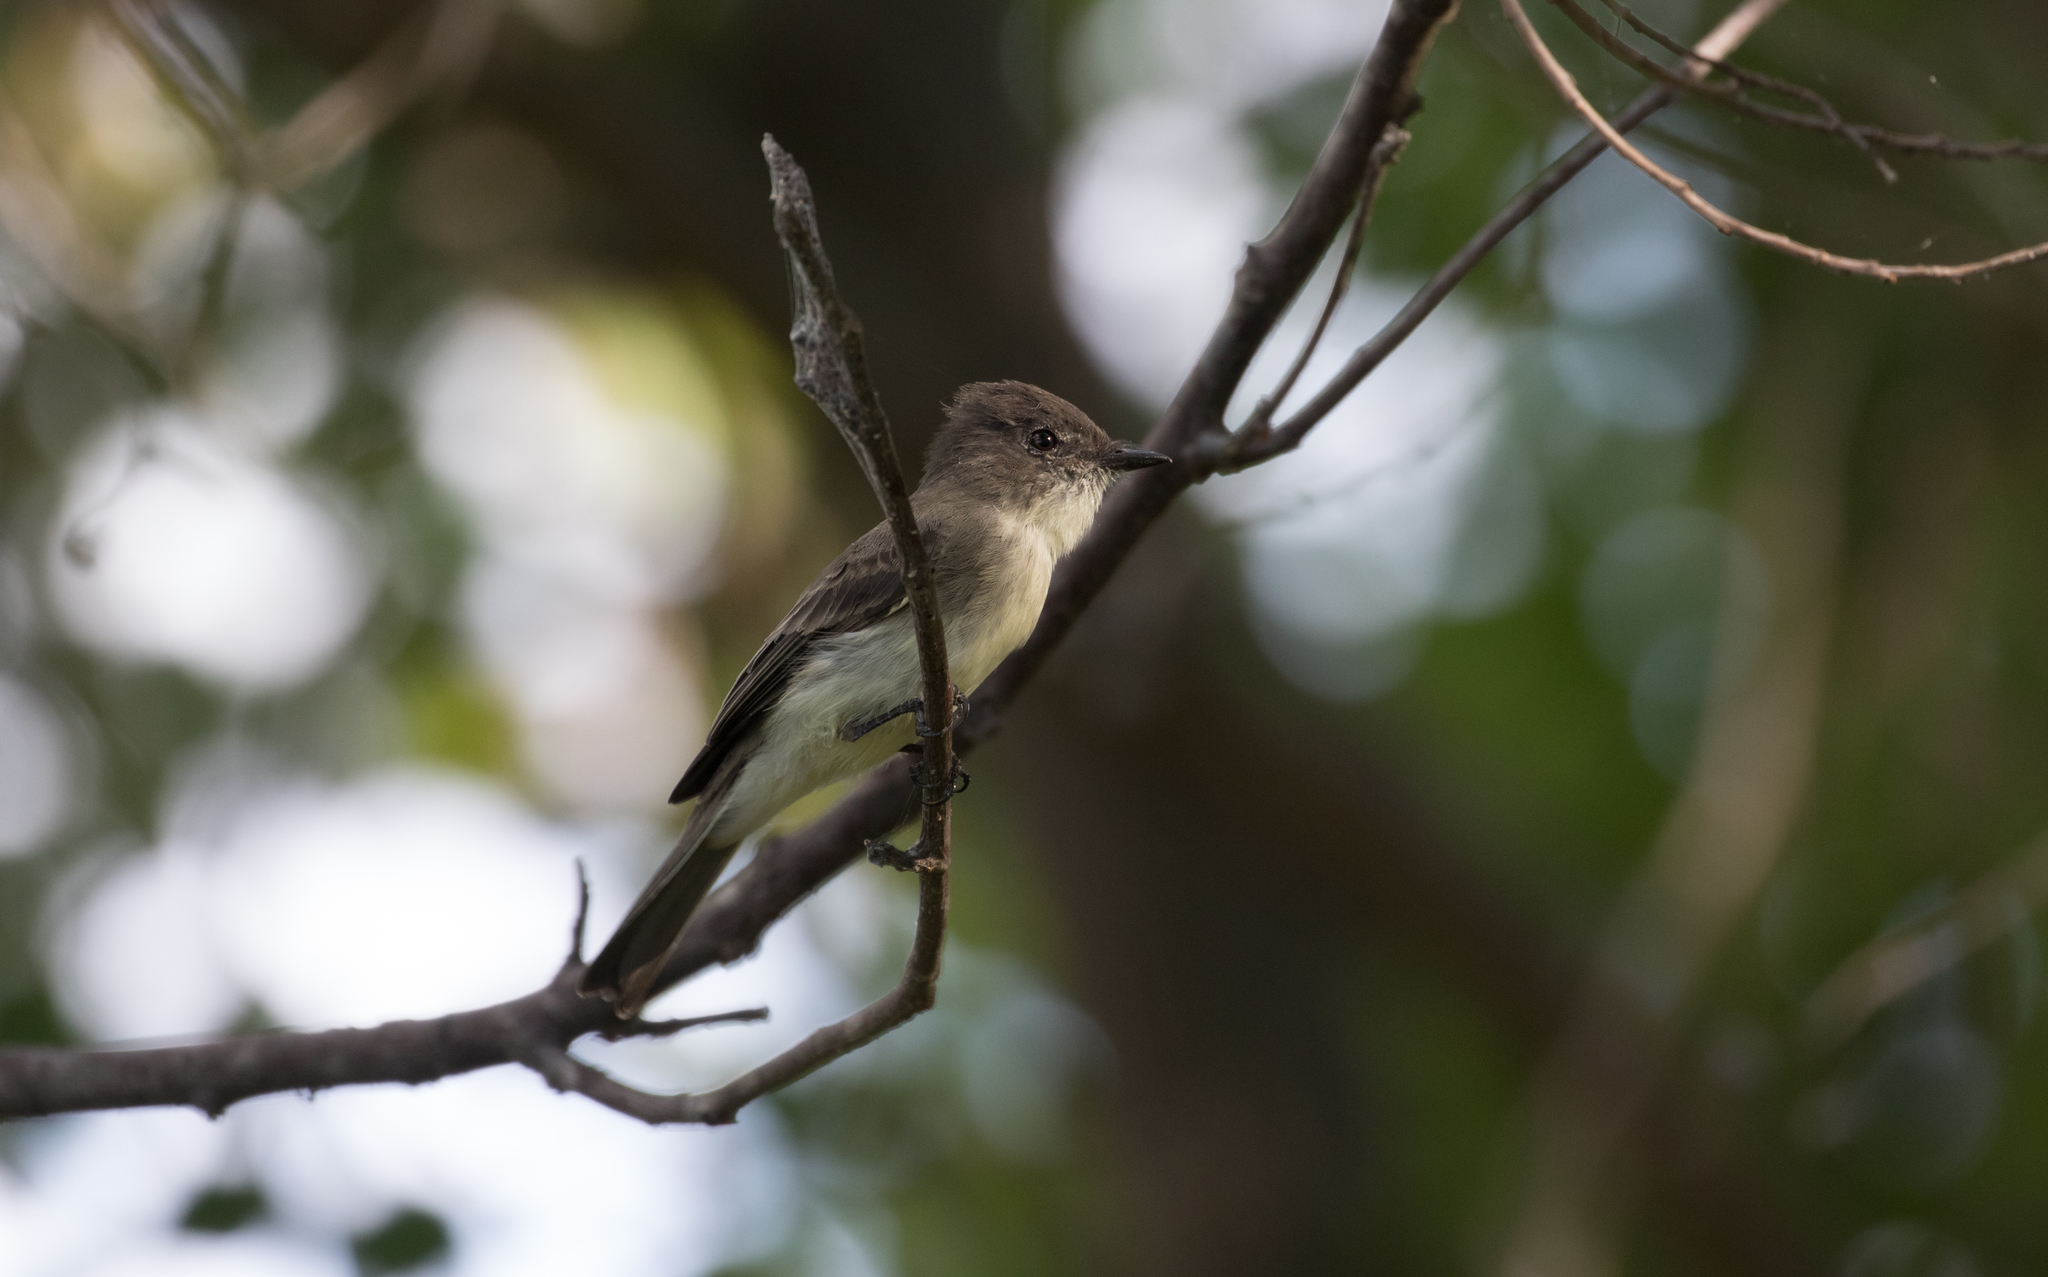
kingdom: Animalia
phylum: Chordata
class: Aves
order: Passeriformes
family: Tyrannidae
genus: Sayornis
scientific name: Sayornis phoebe
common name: Eastern phoebe
